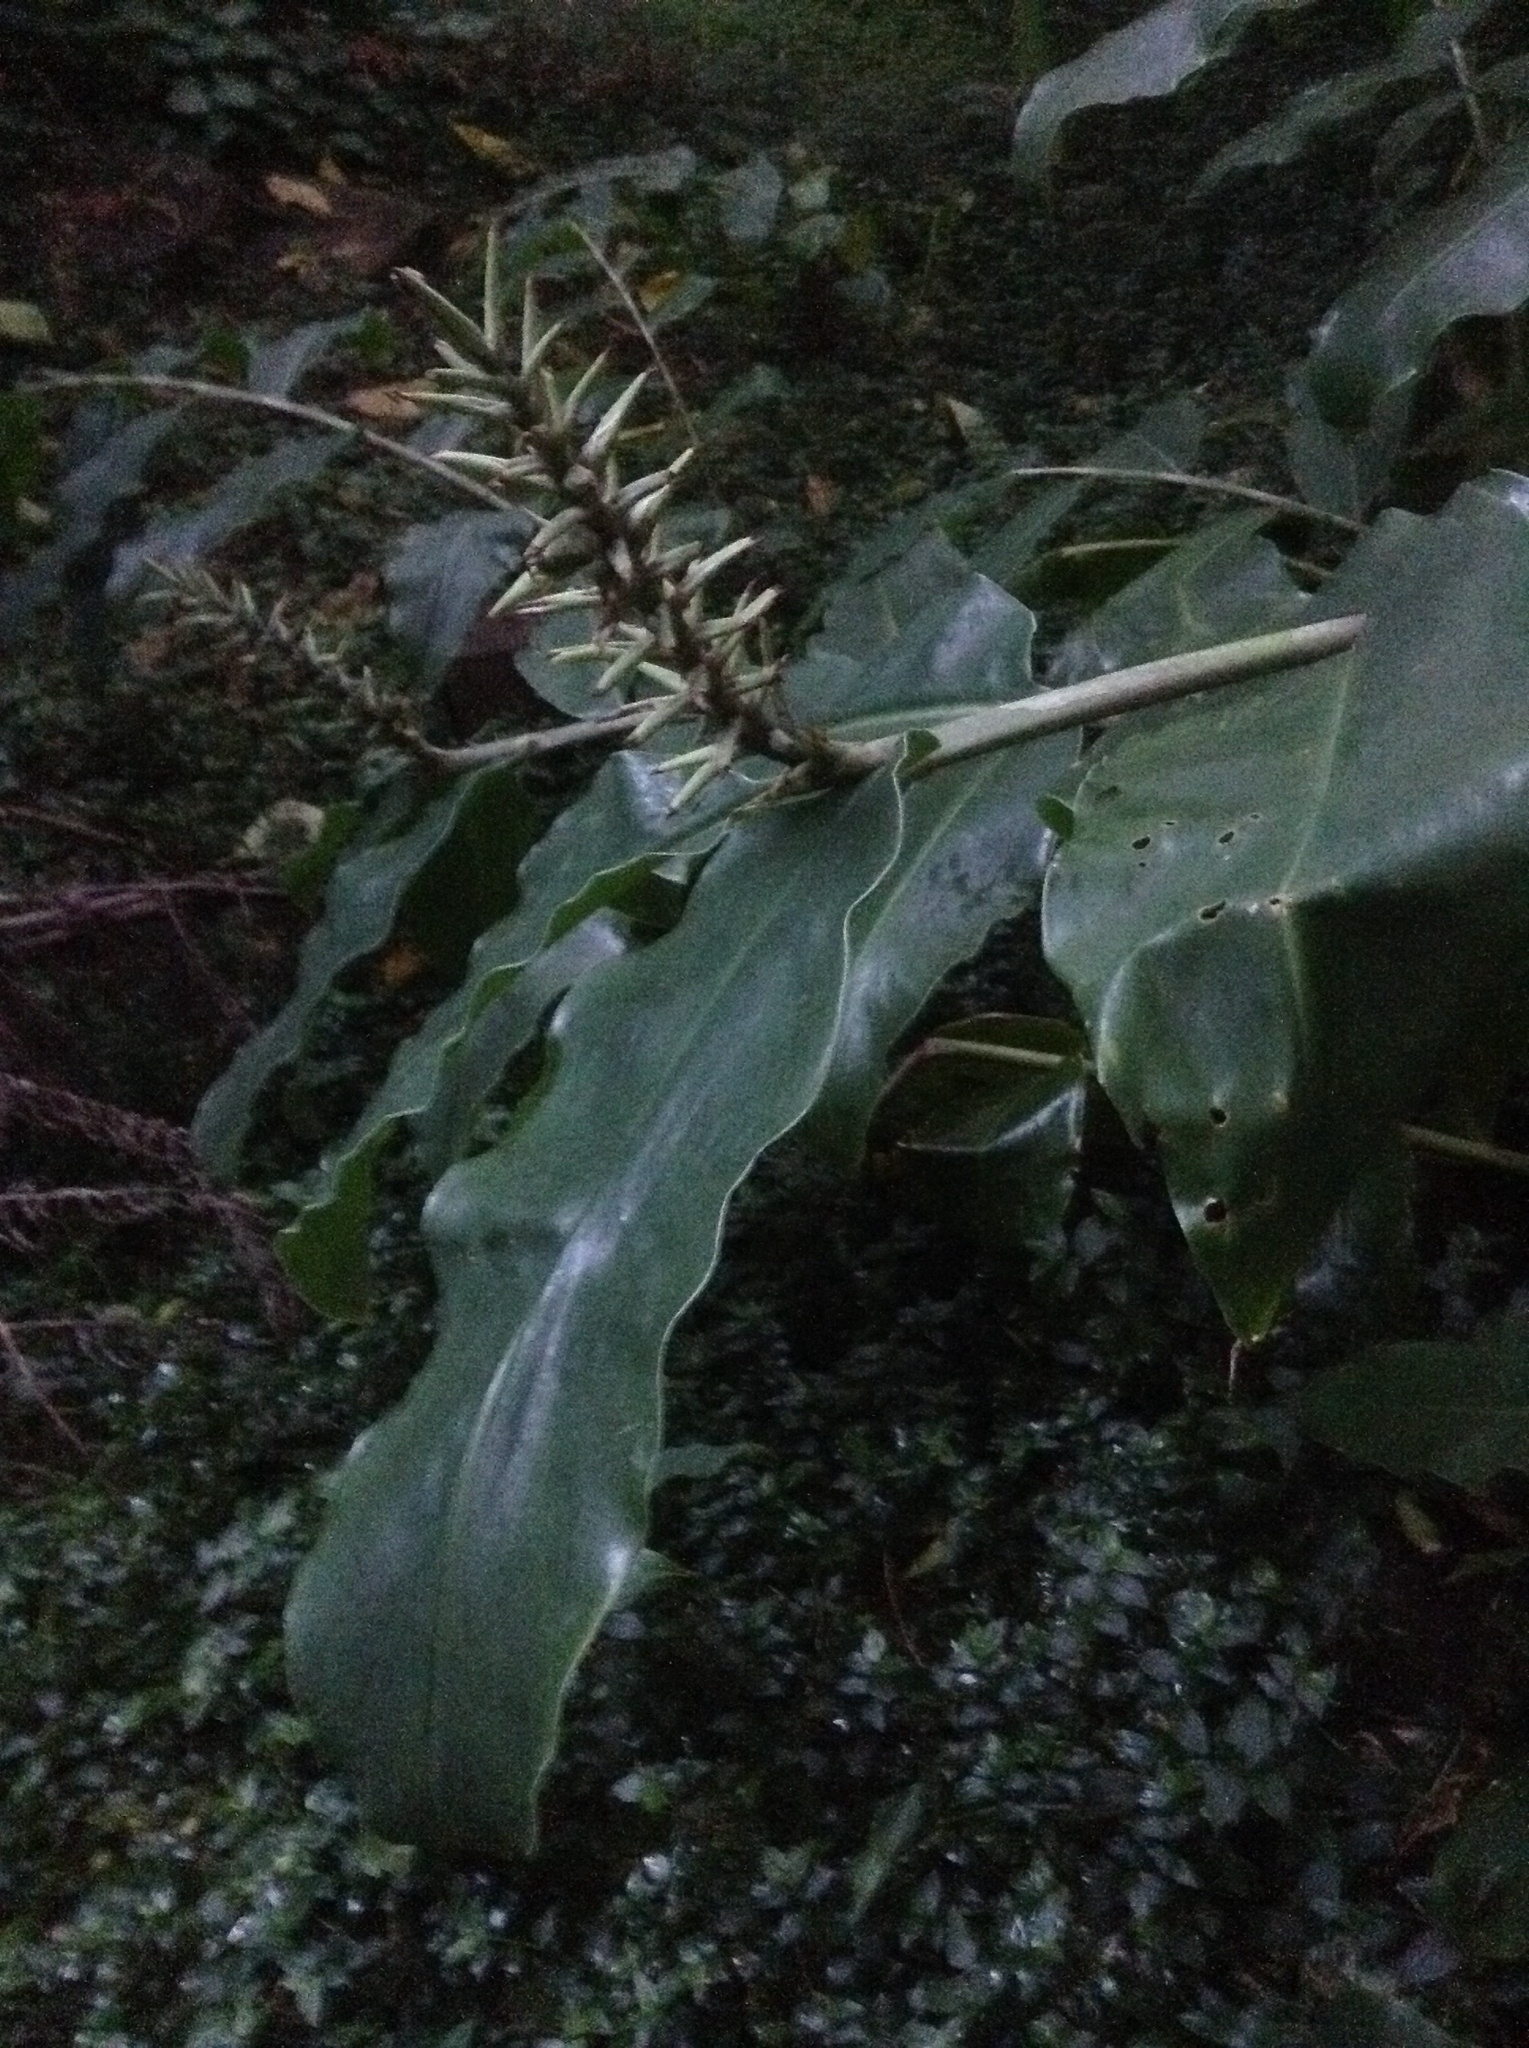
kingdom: Plantae
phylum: Tracheophyta
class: Liliopsida
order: Zingiberales
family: Zingiberaceae
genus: Hedychium
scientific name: Hedychium gardnerianum
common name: Himalayan ginger
